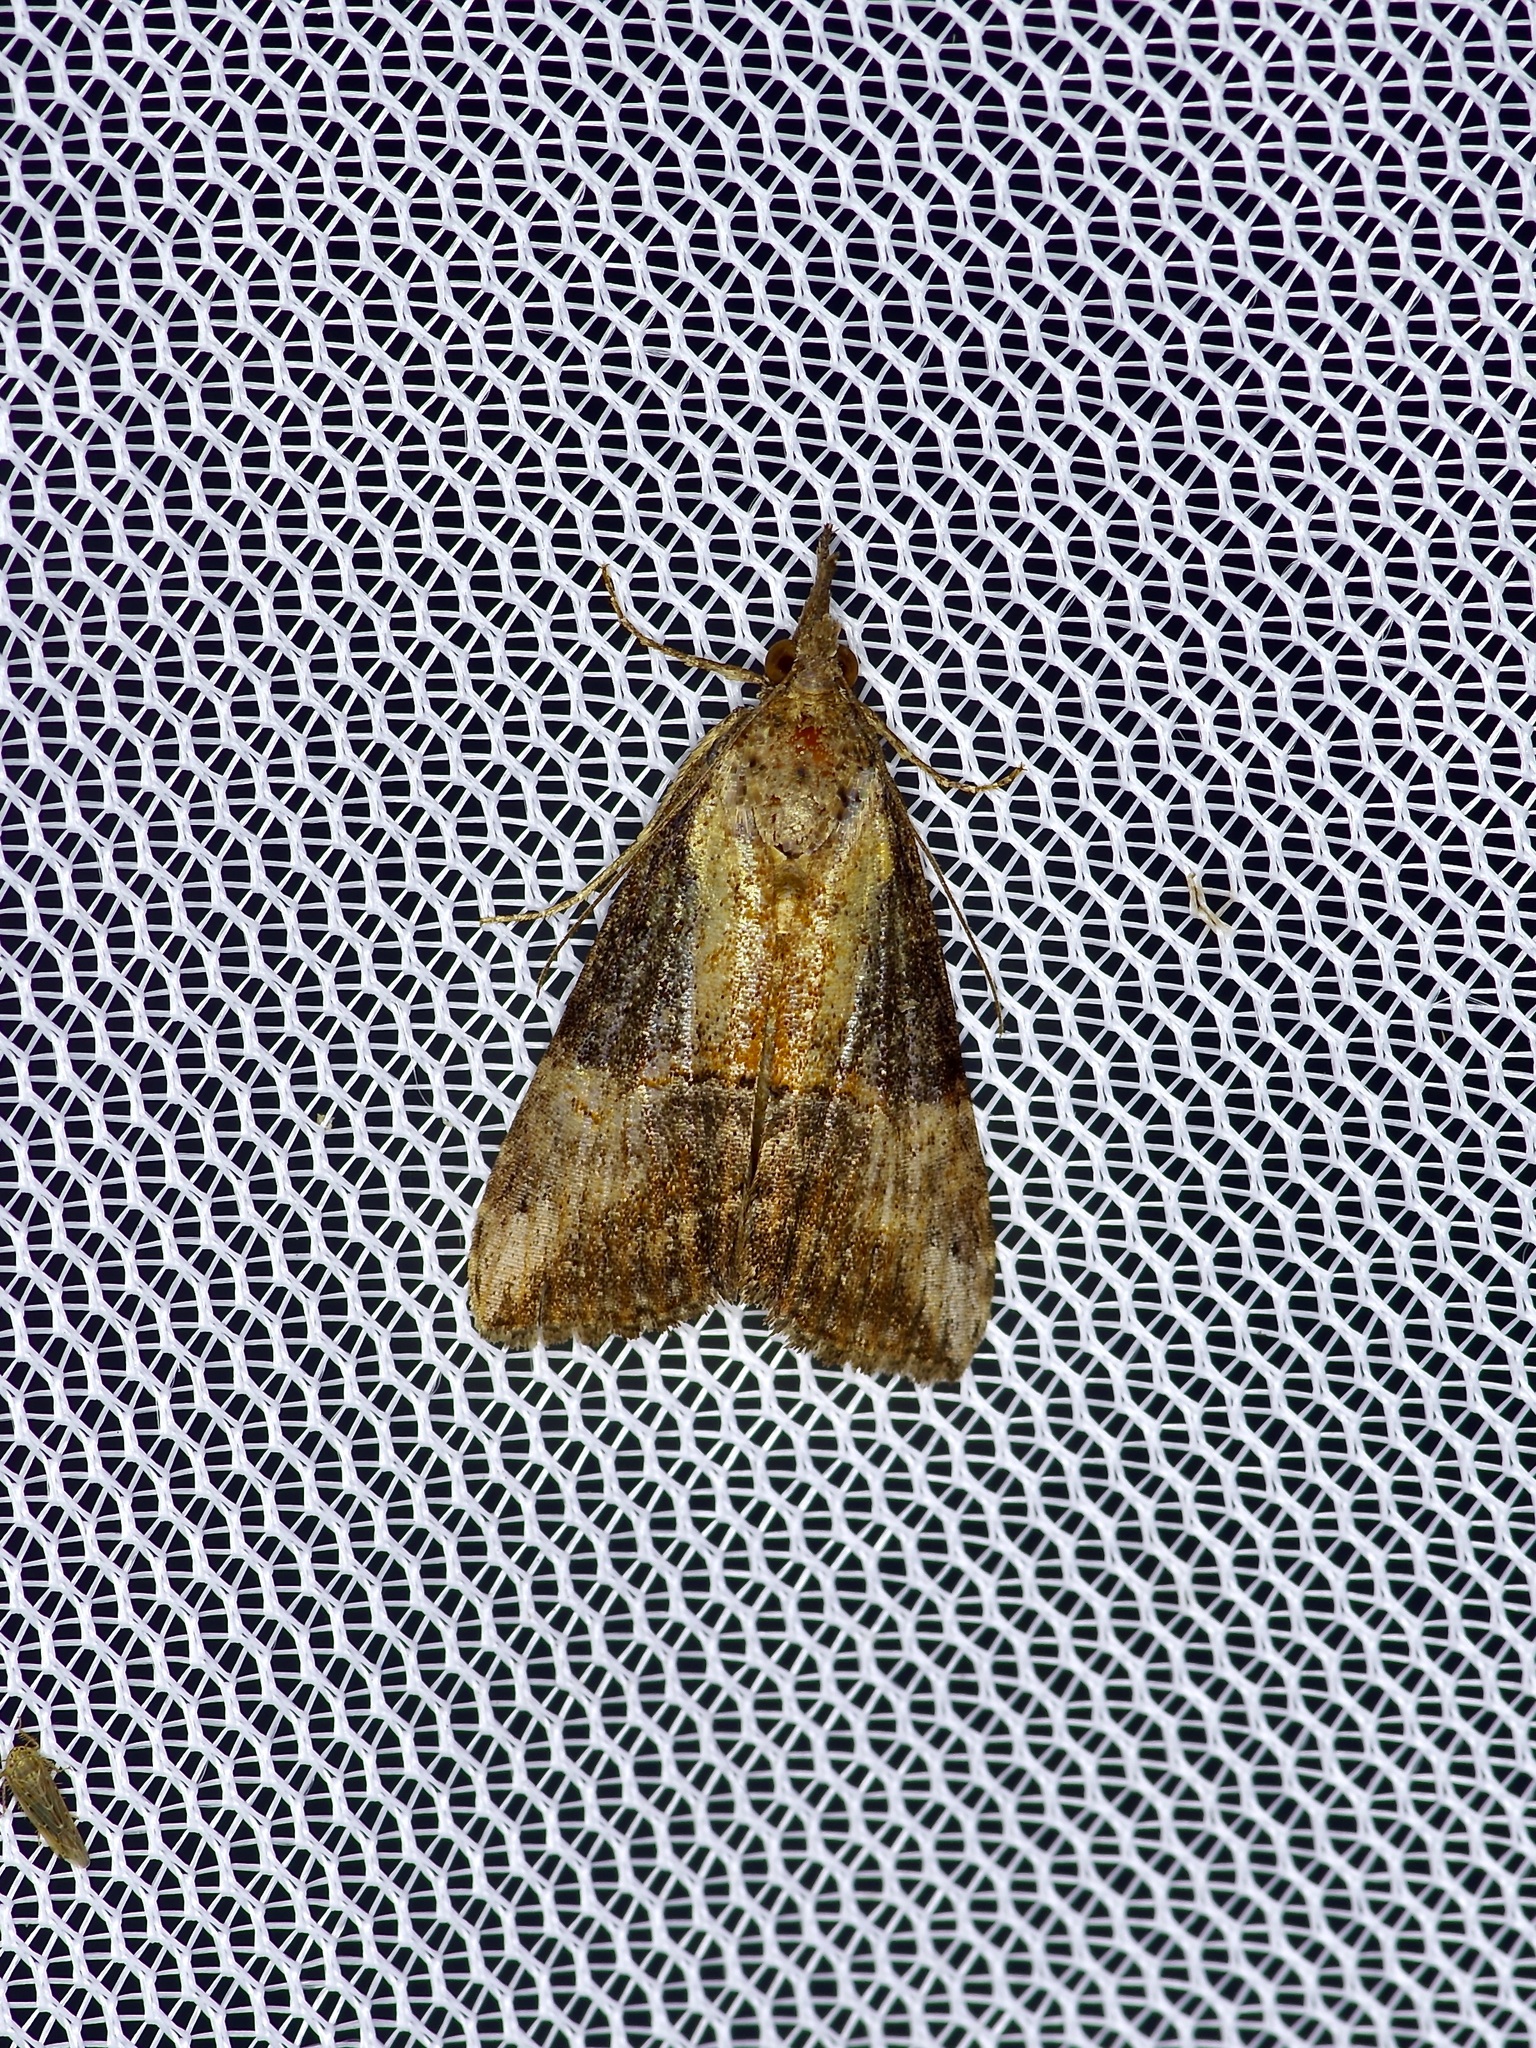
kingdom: Animalia
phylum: Arthropoda
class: Insecta
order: Lepidoptera
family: Erebidae
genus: Hypena
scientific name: Hypena scabra
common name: Green cloverworm
